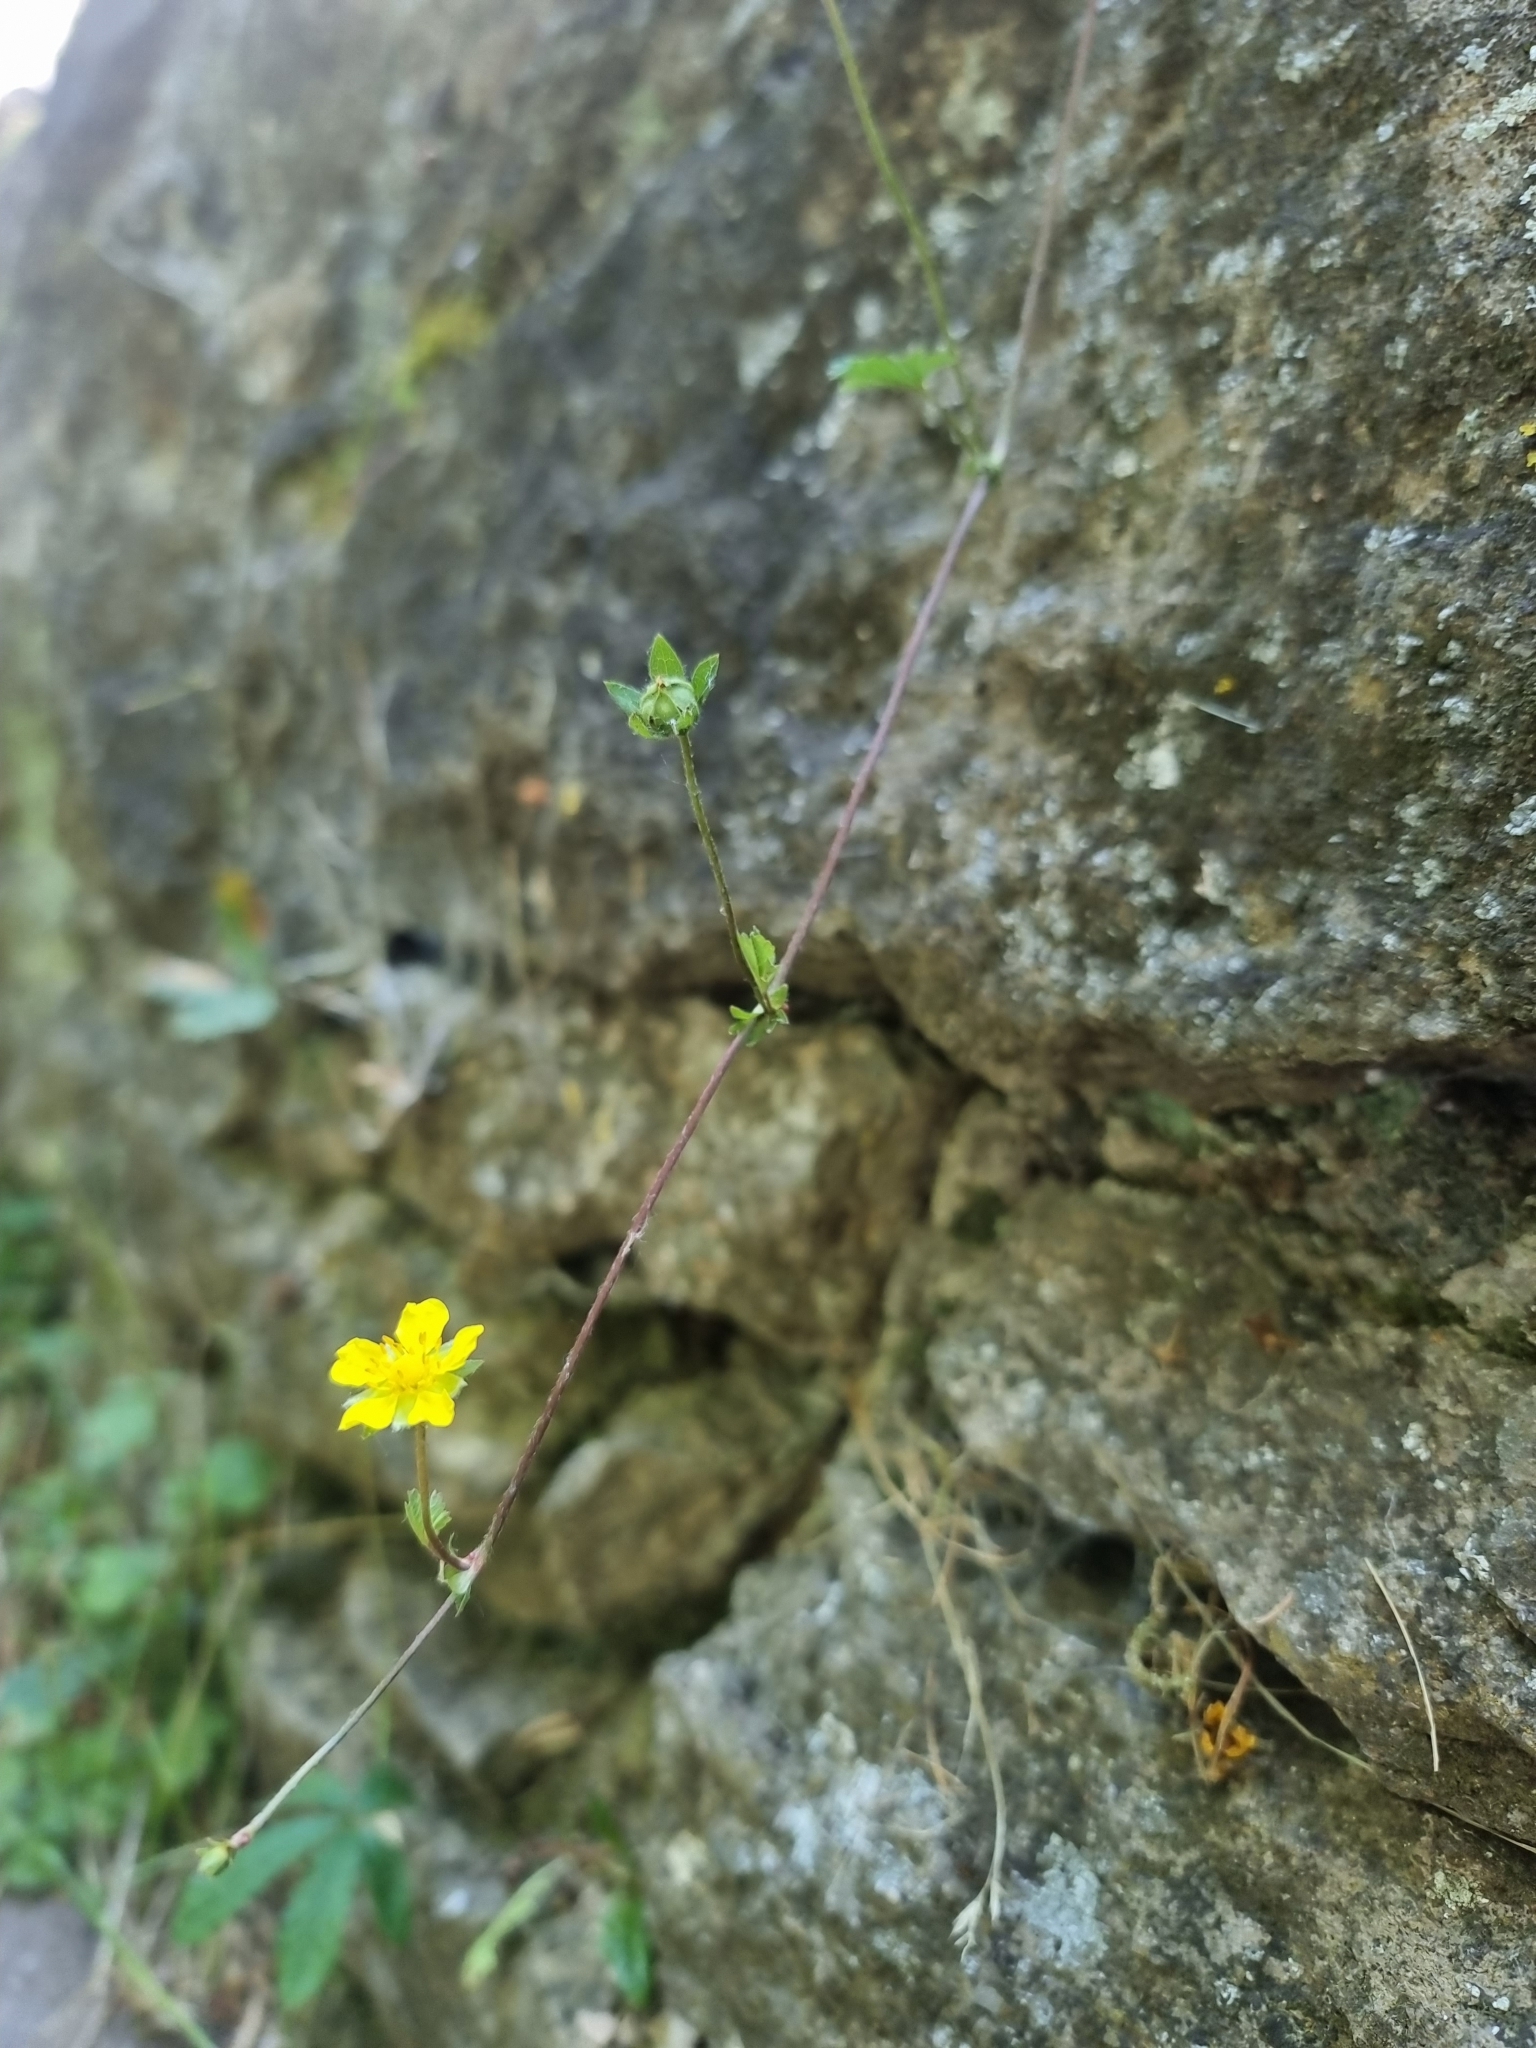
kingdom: Plantae
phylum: Tracheophyta
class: Magnoliopsida
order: Rosales
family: Rosaceae
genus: Potentilla
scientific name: Potentilla reptans
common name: Creeping cinquefoil
